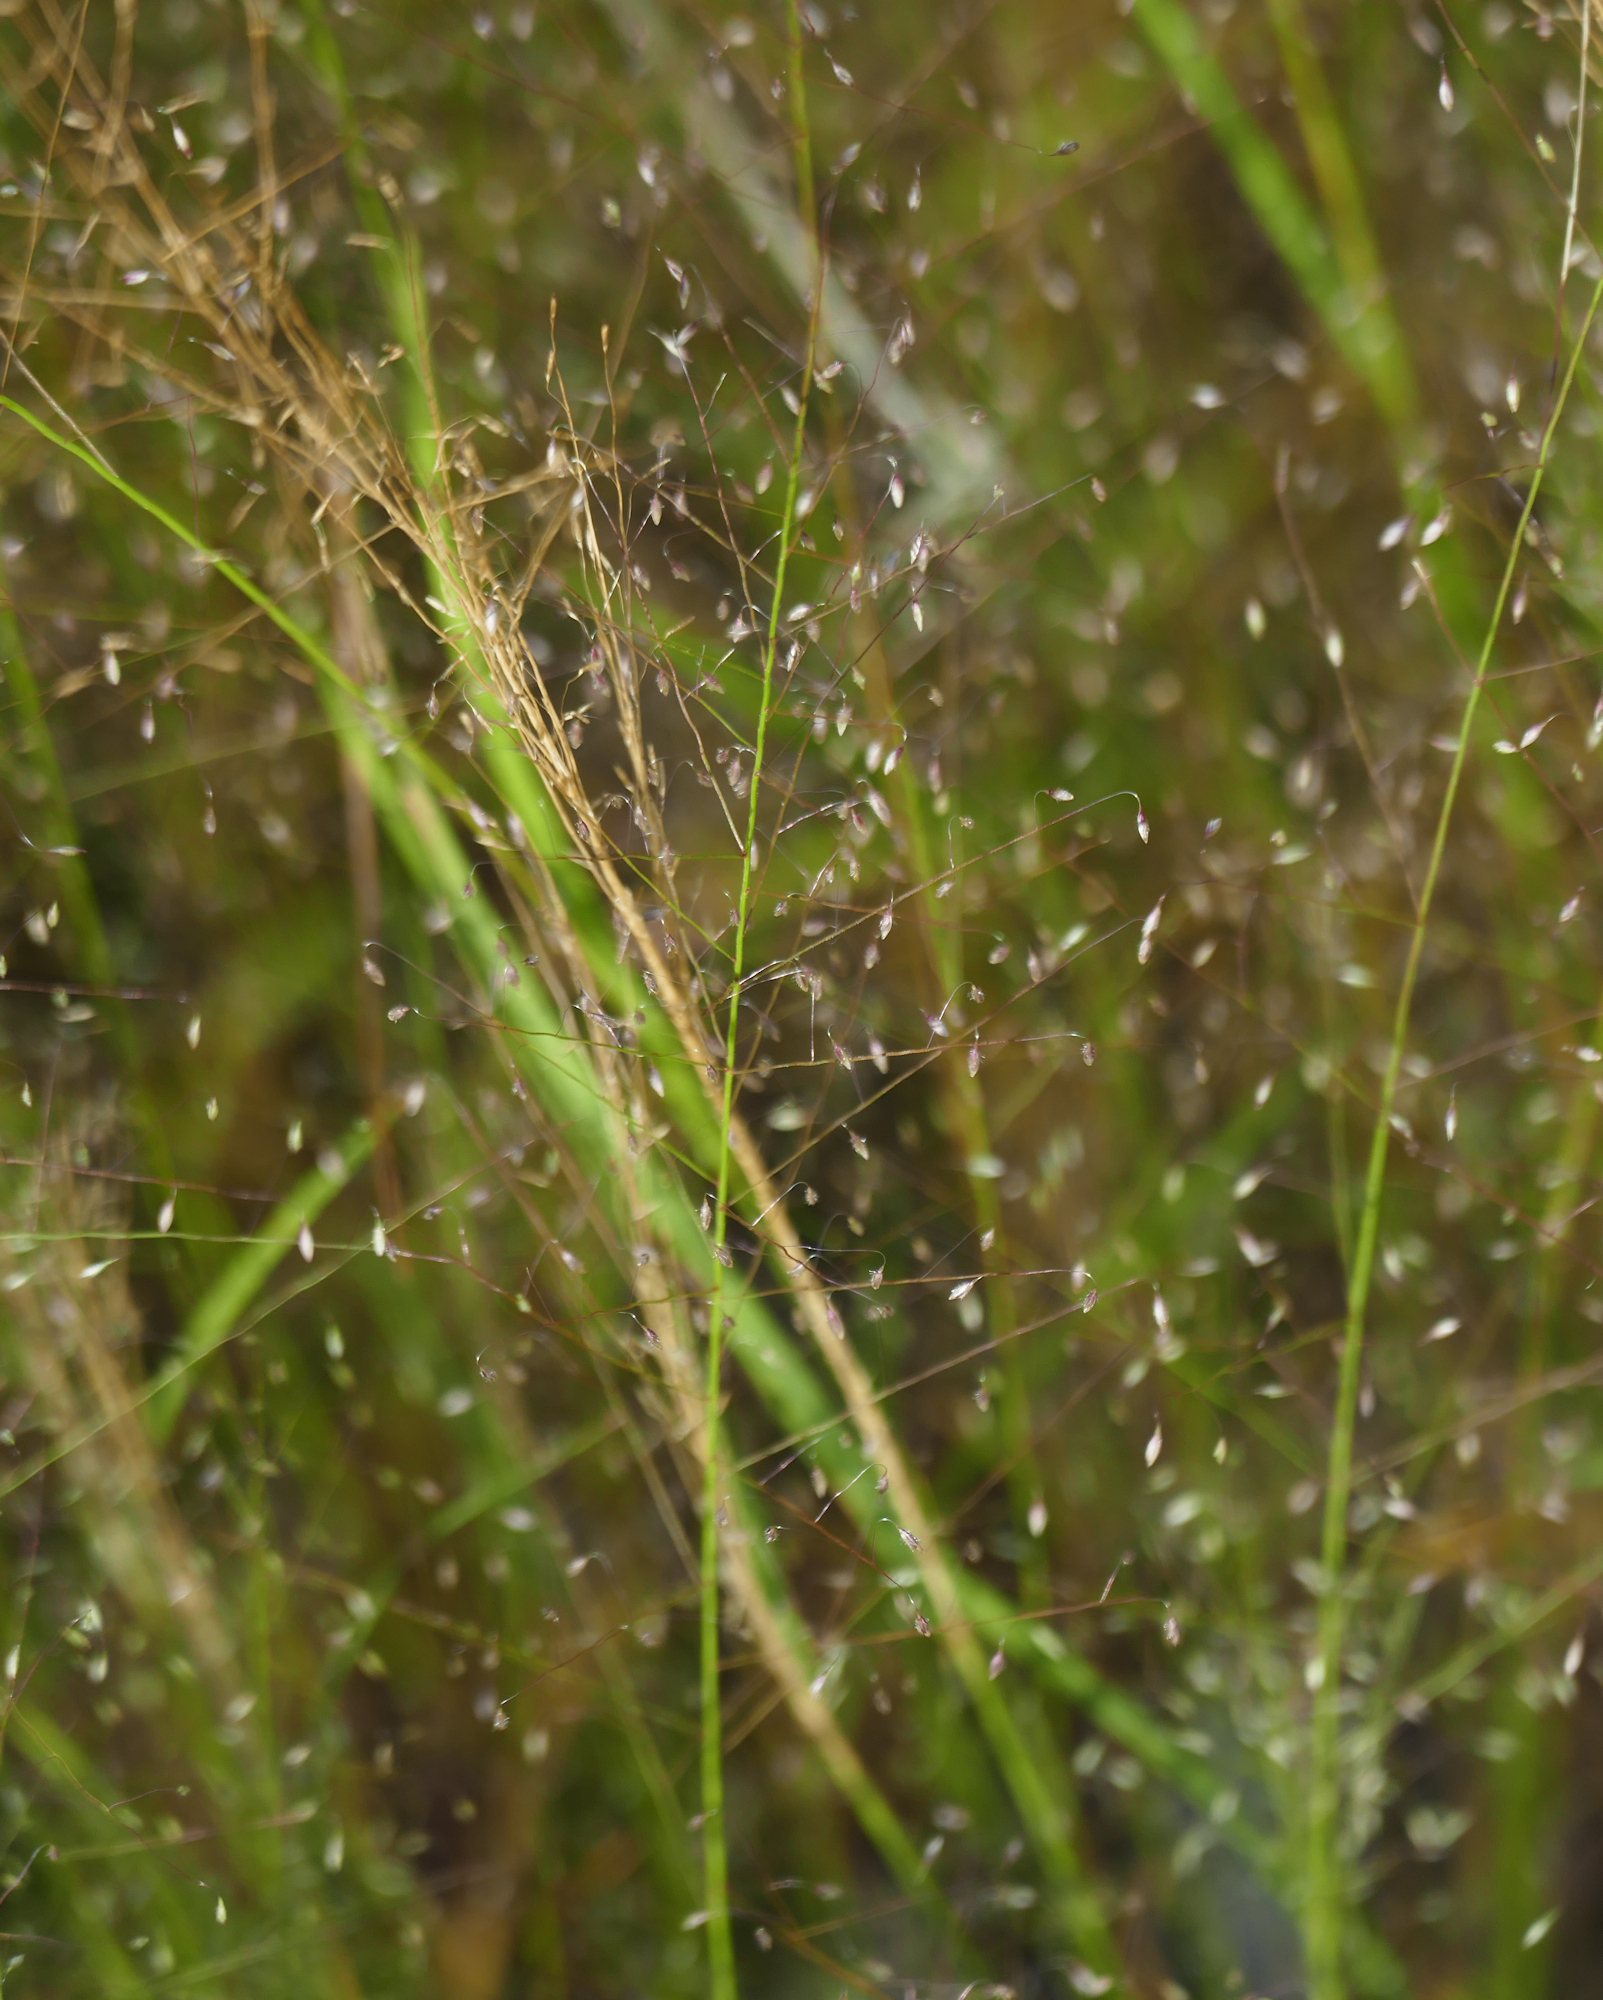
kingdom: Plantae
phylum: Tracheophyta
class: Liliopsida
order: Poales
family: Poaceae
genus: Muhlenbergia
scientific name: Muhlenbergia sinuosa
